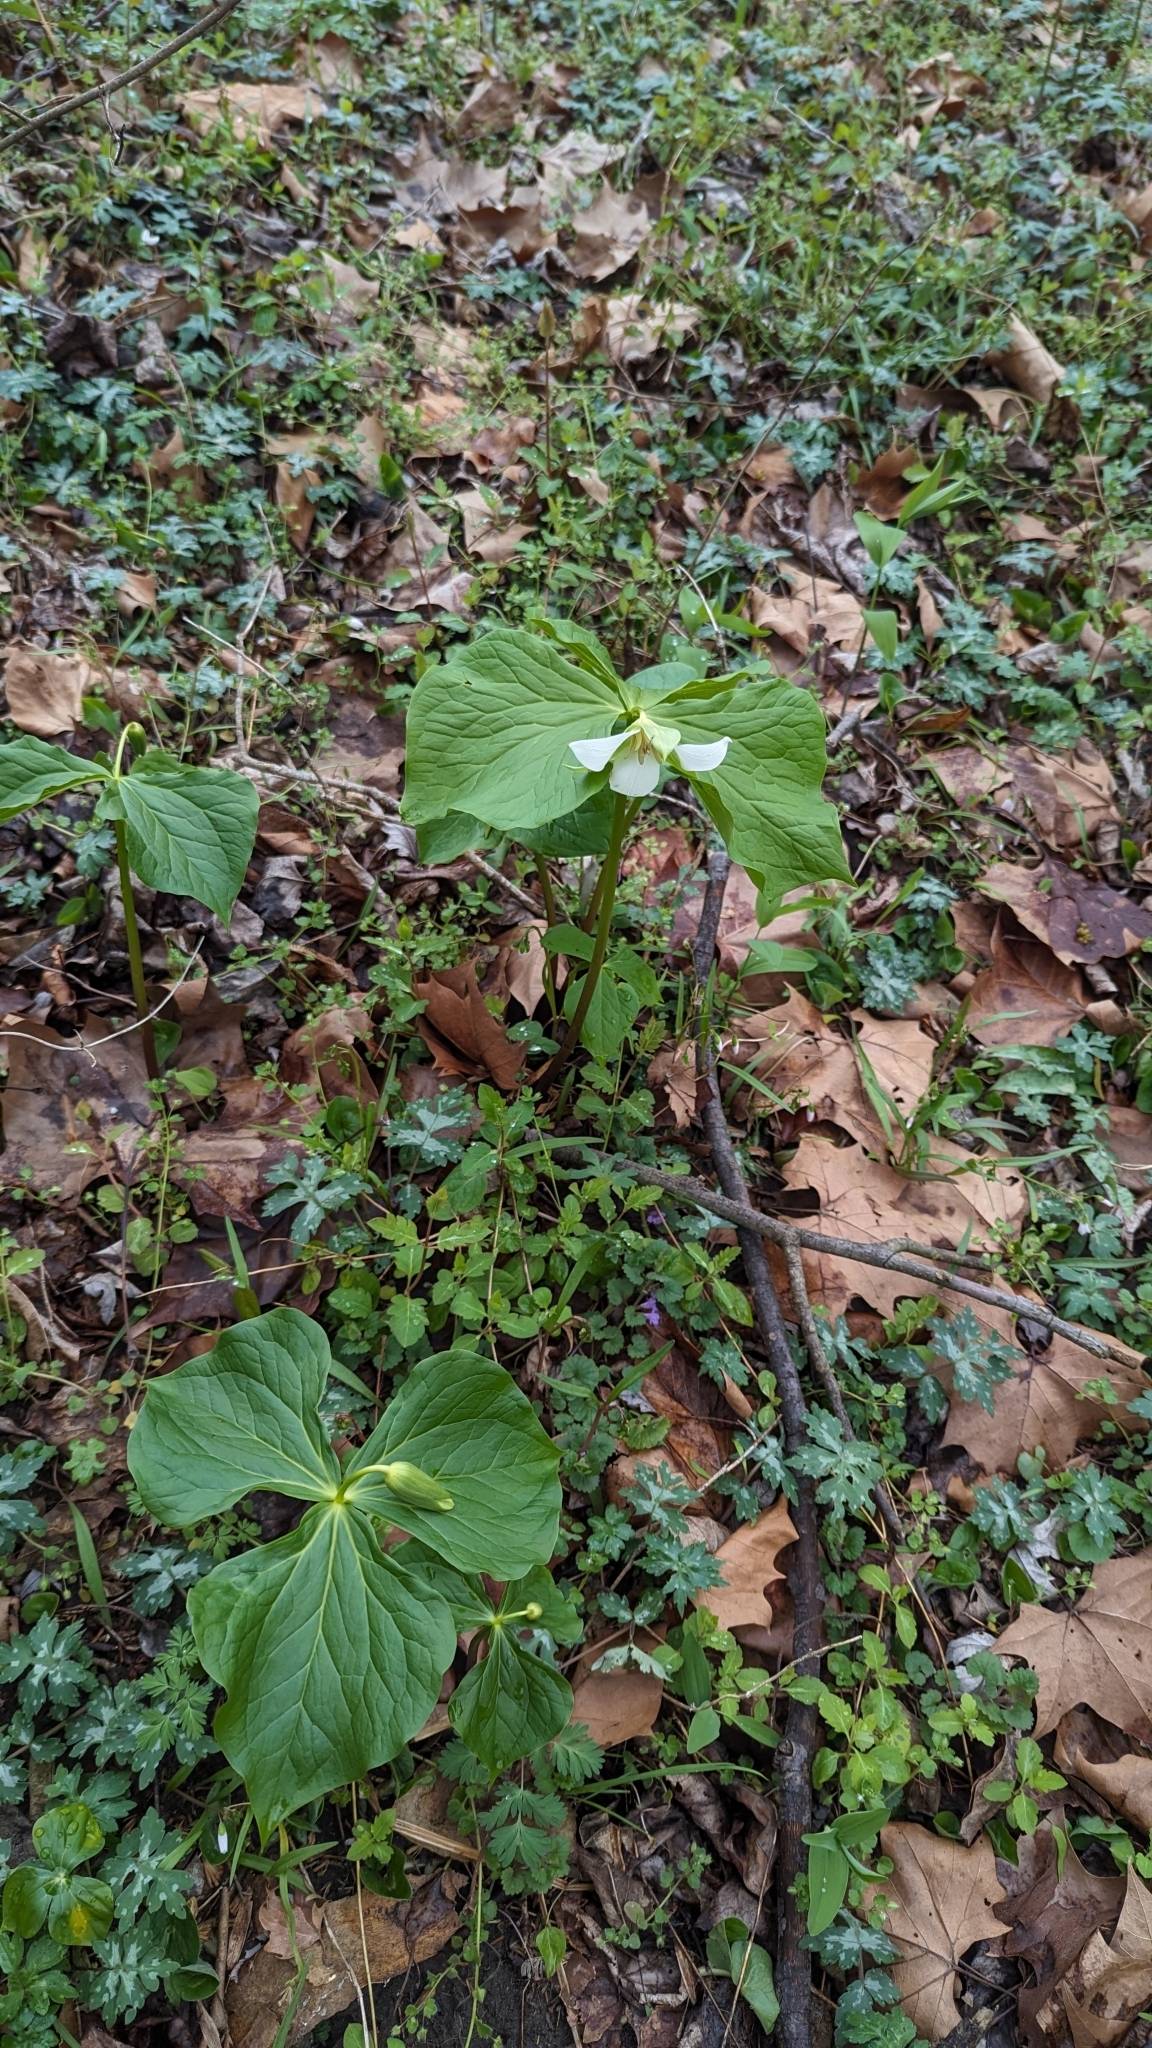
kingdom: Plantae
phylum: Tracheophyta
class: Liliopsida
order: Liliales
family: Melanthiaceae
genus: Trillium
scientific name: Trillium flexipes
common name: Drooping trillium
